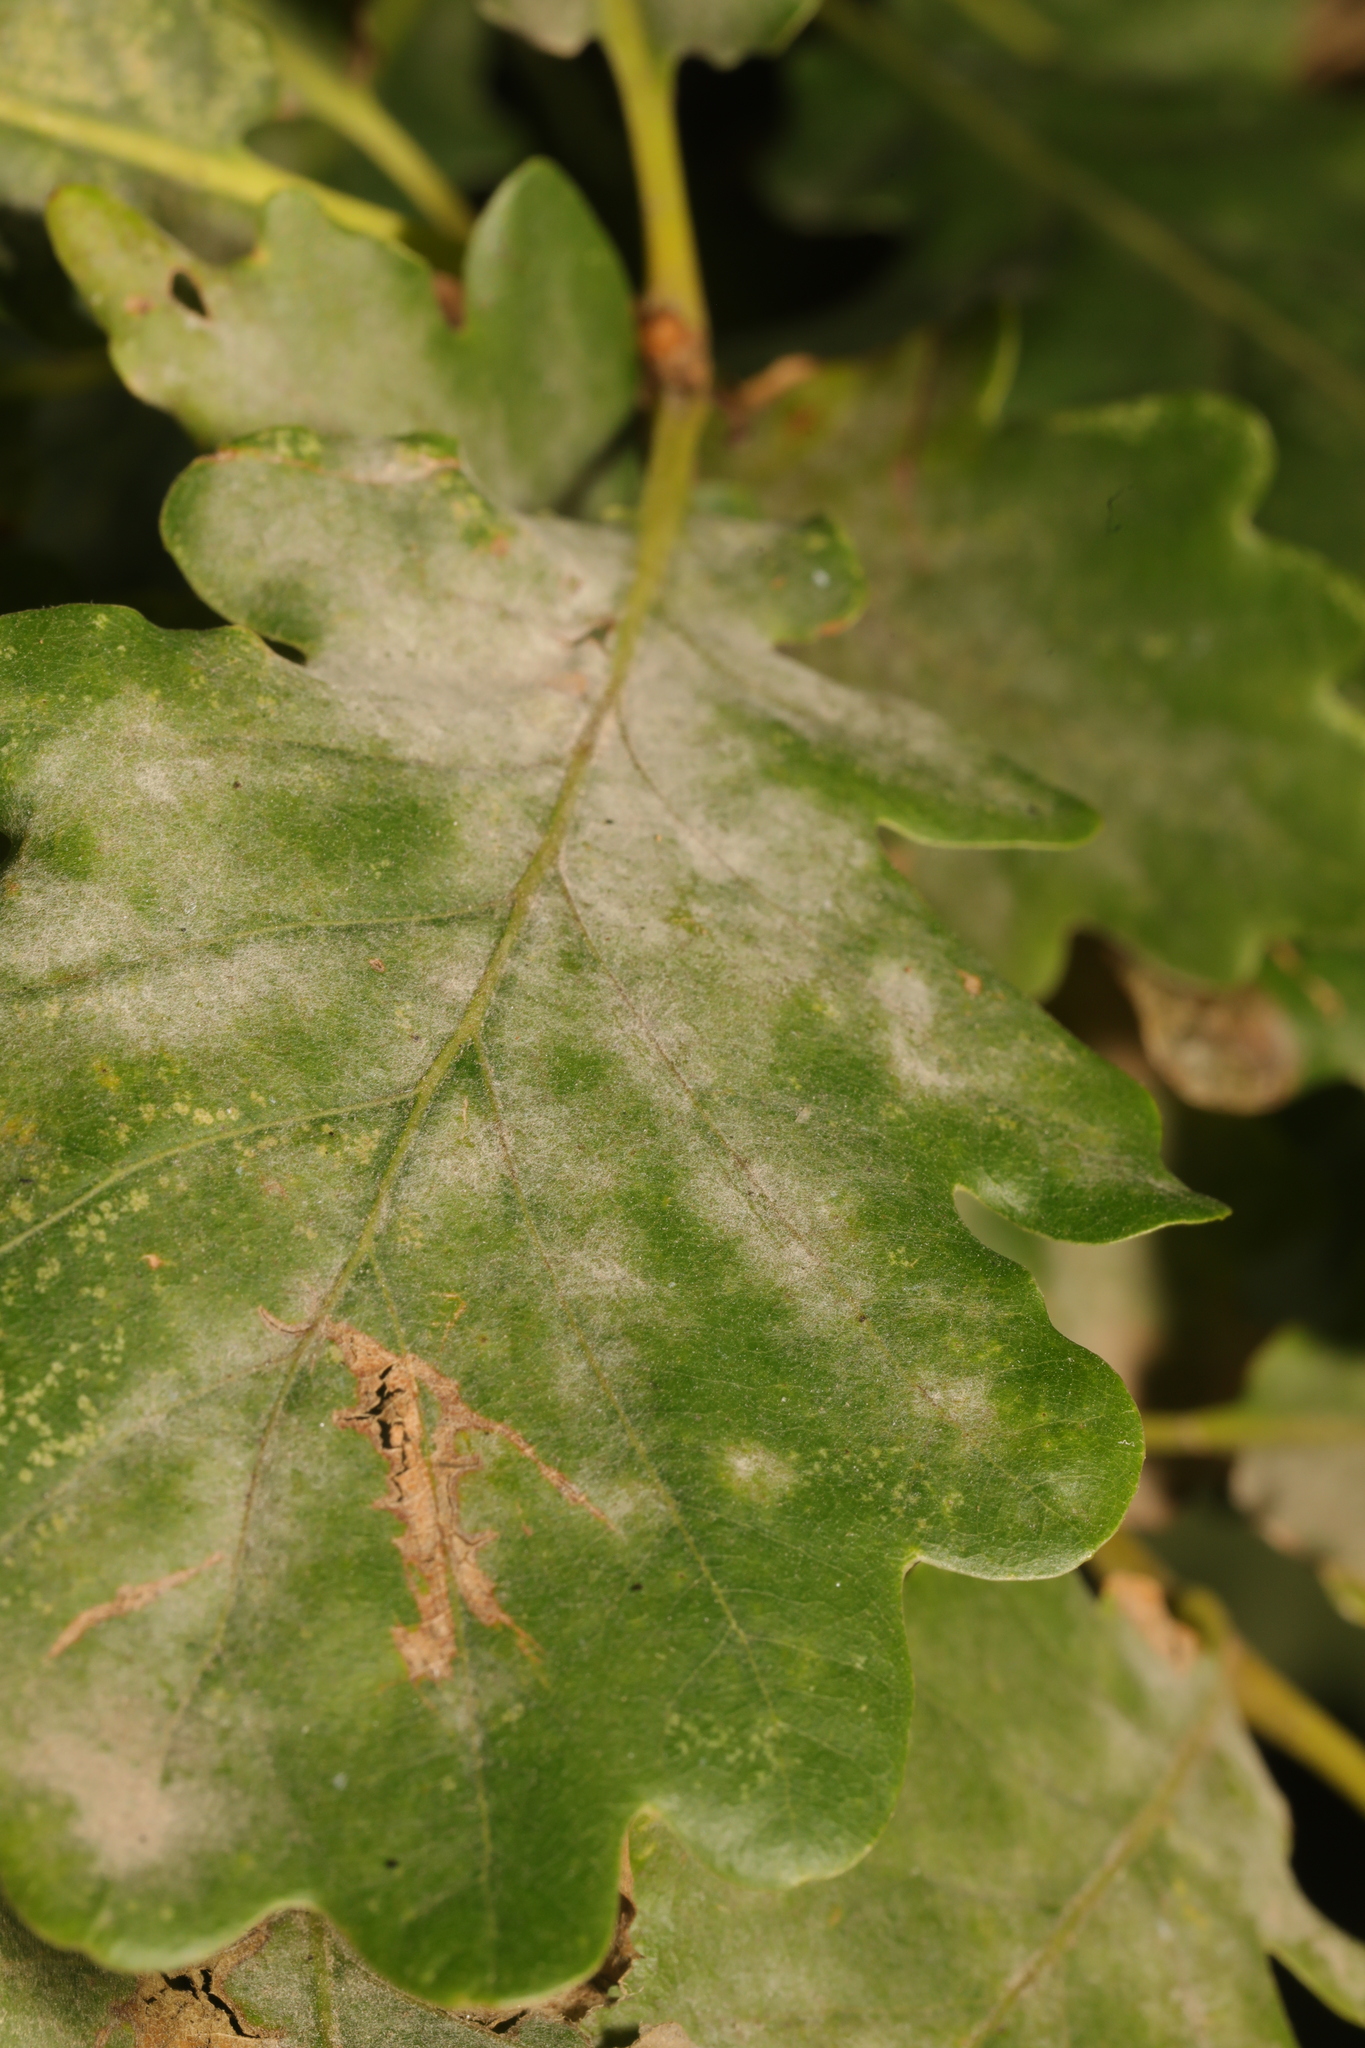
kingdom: Fungi
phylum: Ascomycota
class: Leotiomycetes
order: Helotiales
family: Erysiphaceae
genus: Erysiphe
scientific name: Erysiphe alphitoides
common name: Oak mildew
